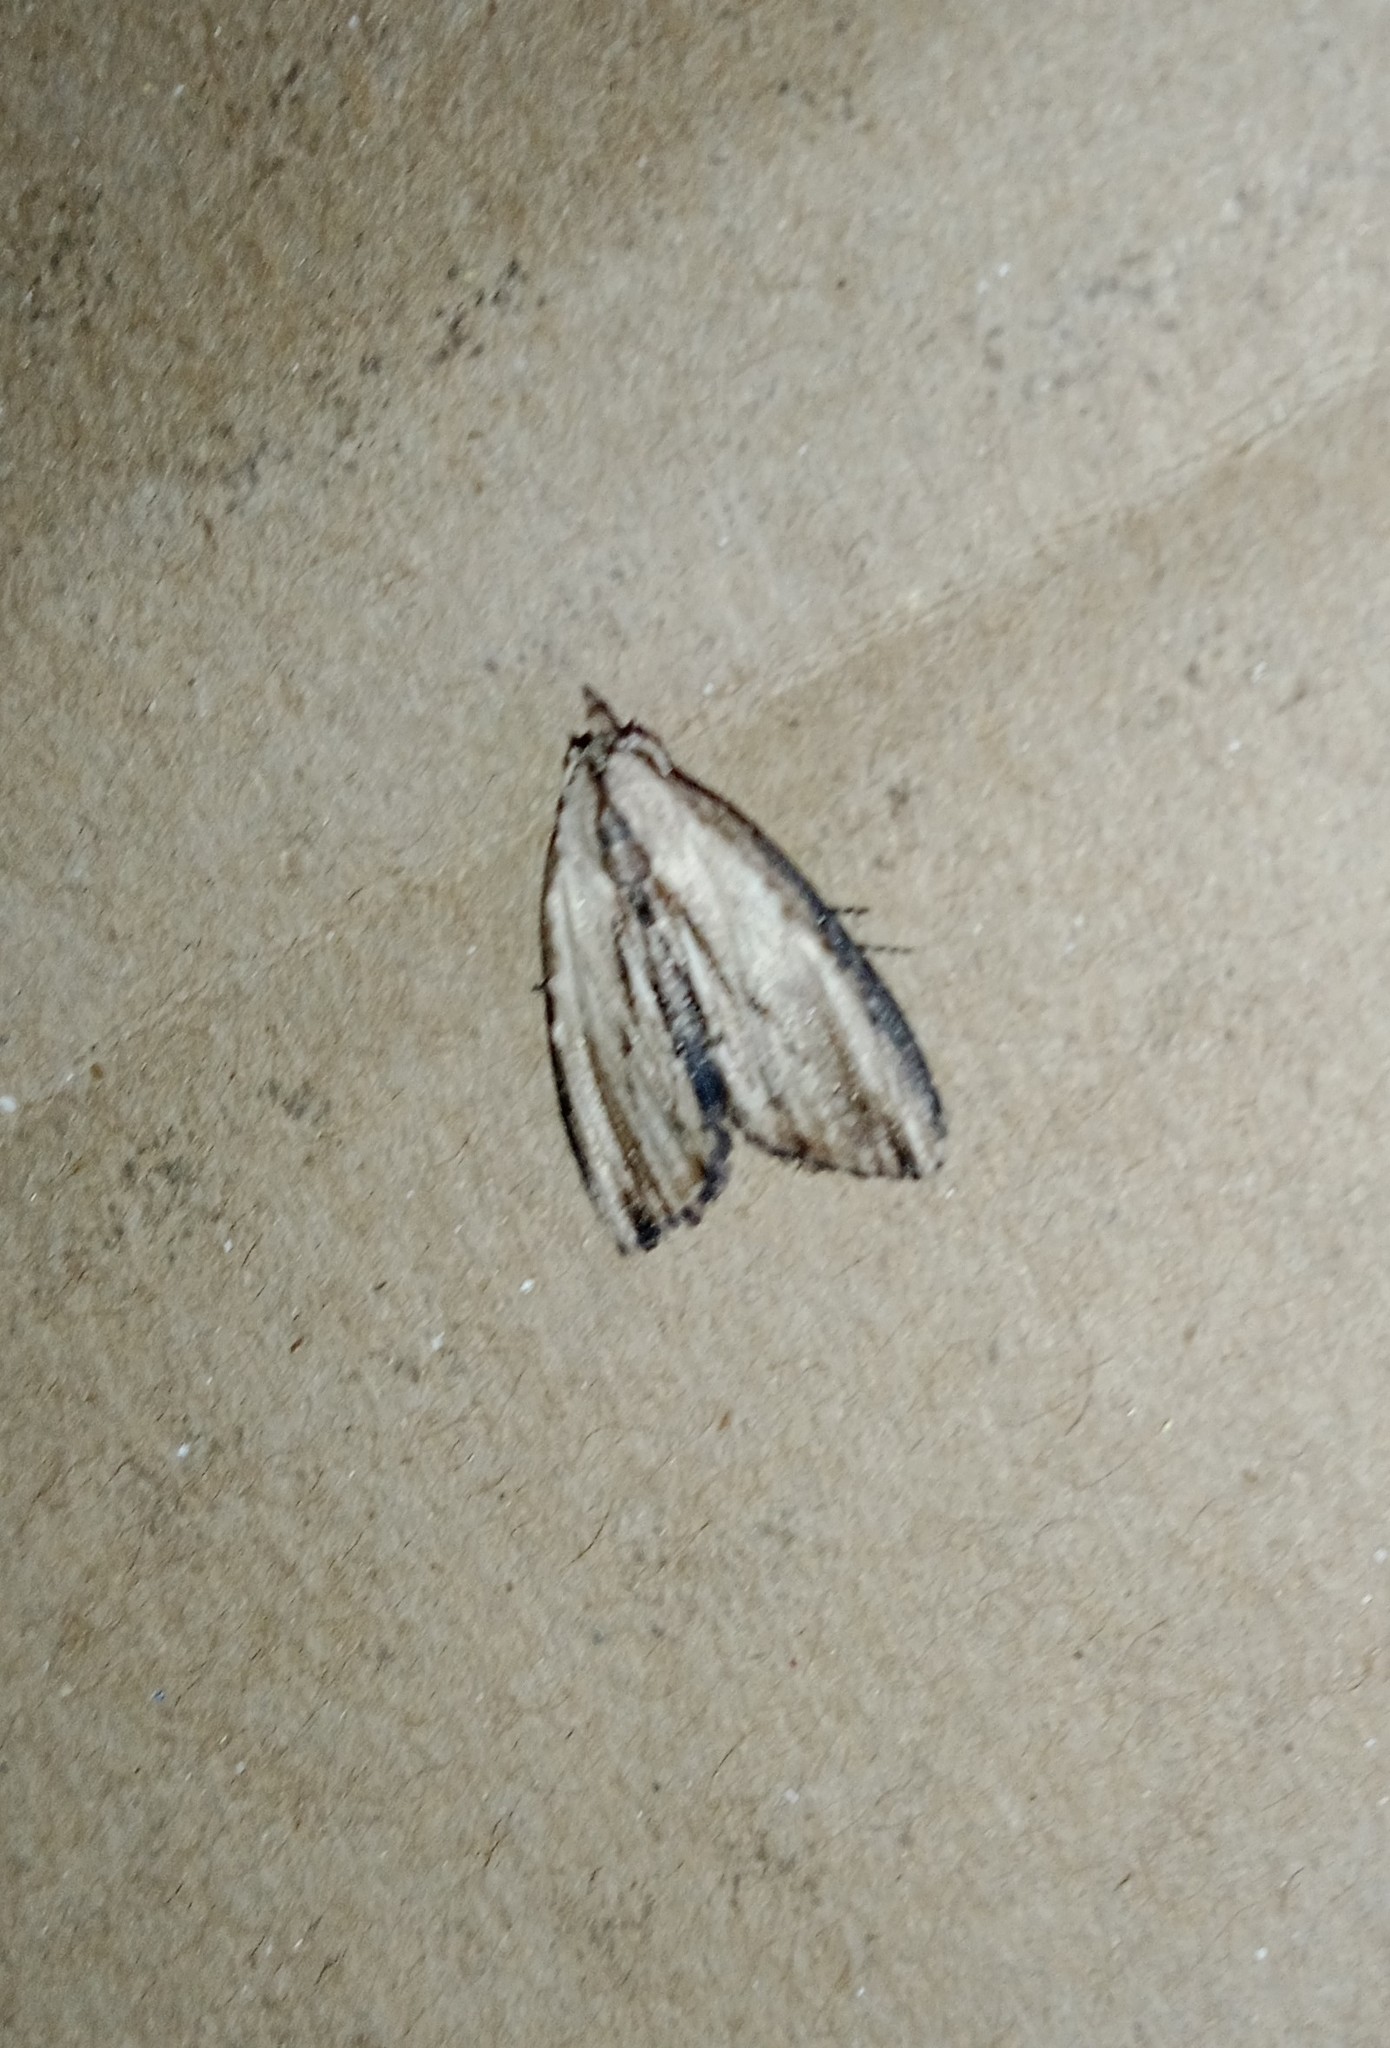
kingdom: Animalia
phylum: Arthropoda
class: Insecta
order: Lepidoptera
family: Nolidae
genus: Sarbena
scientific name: Sarbena lignifera
